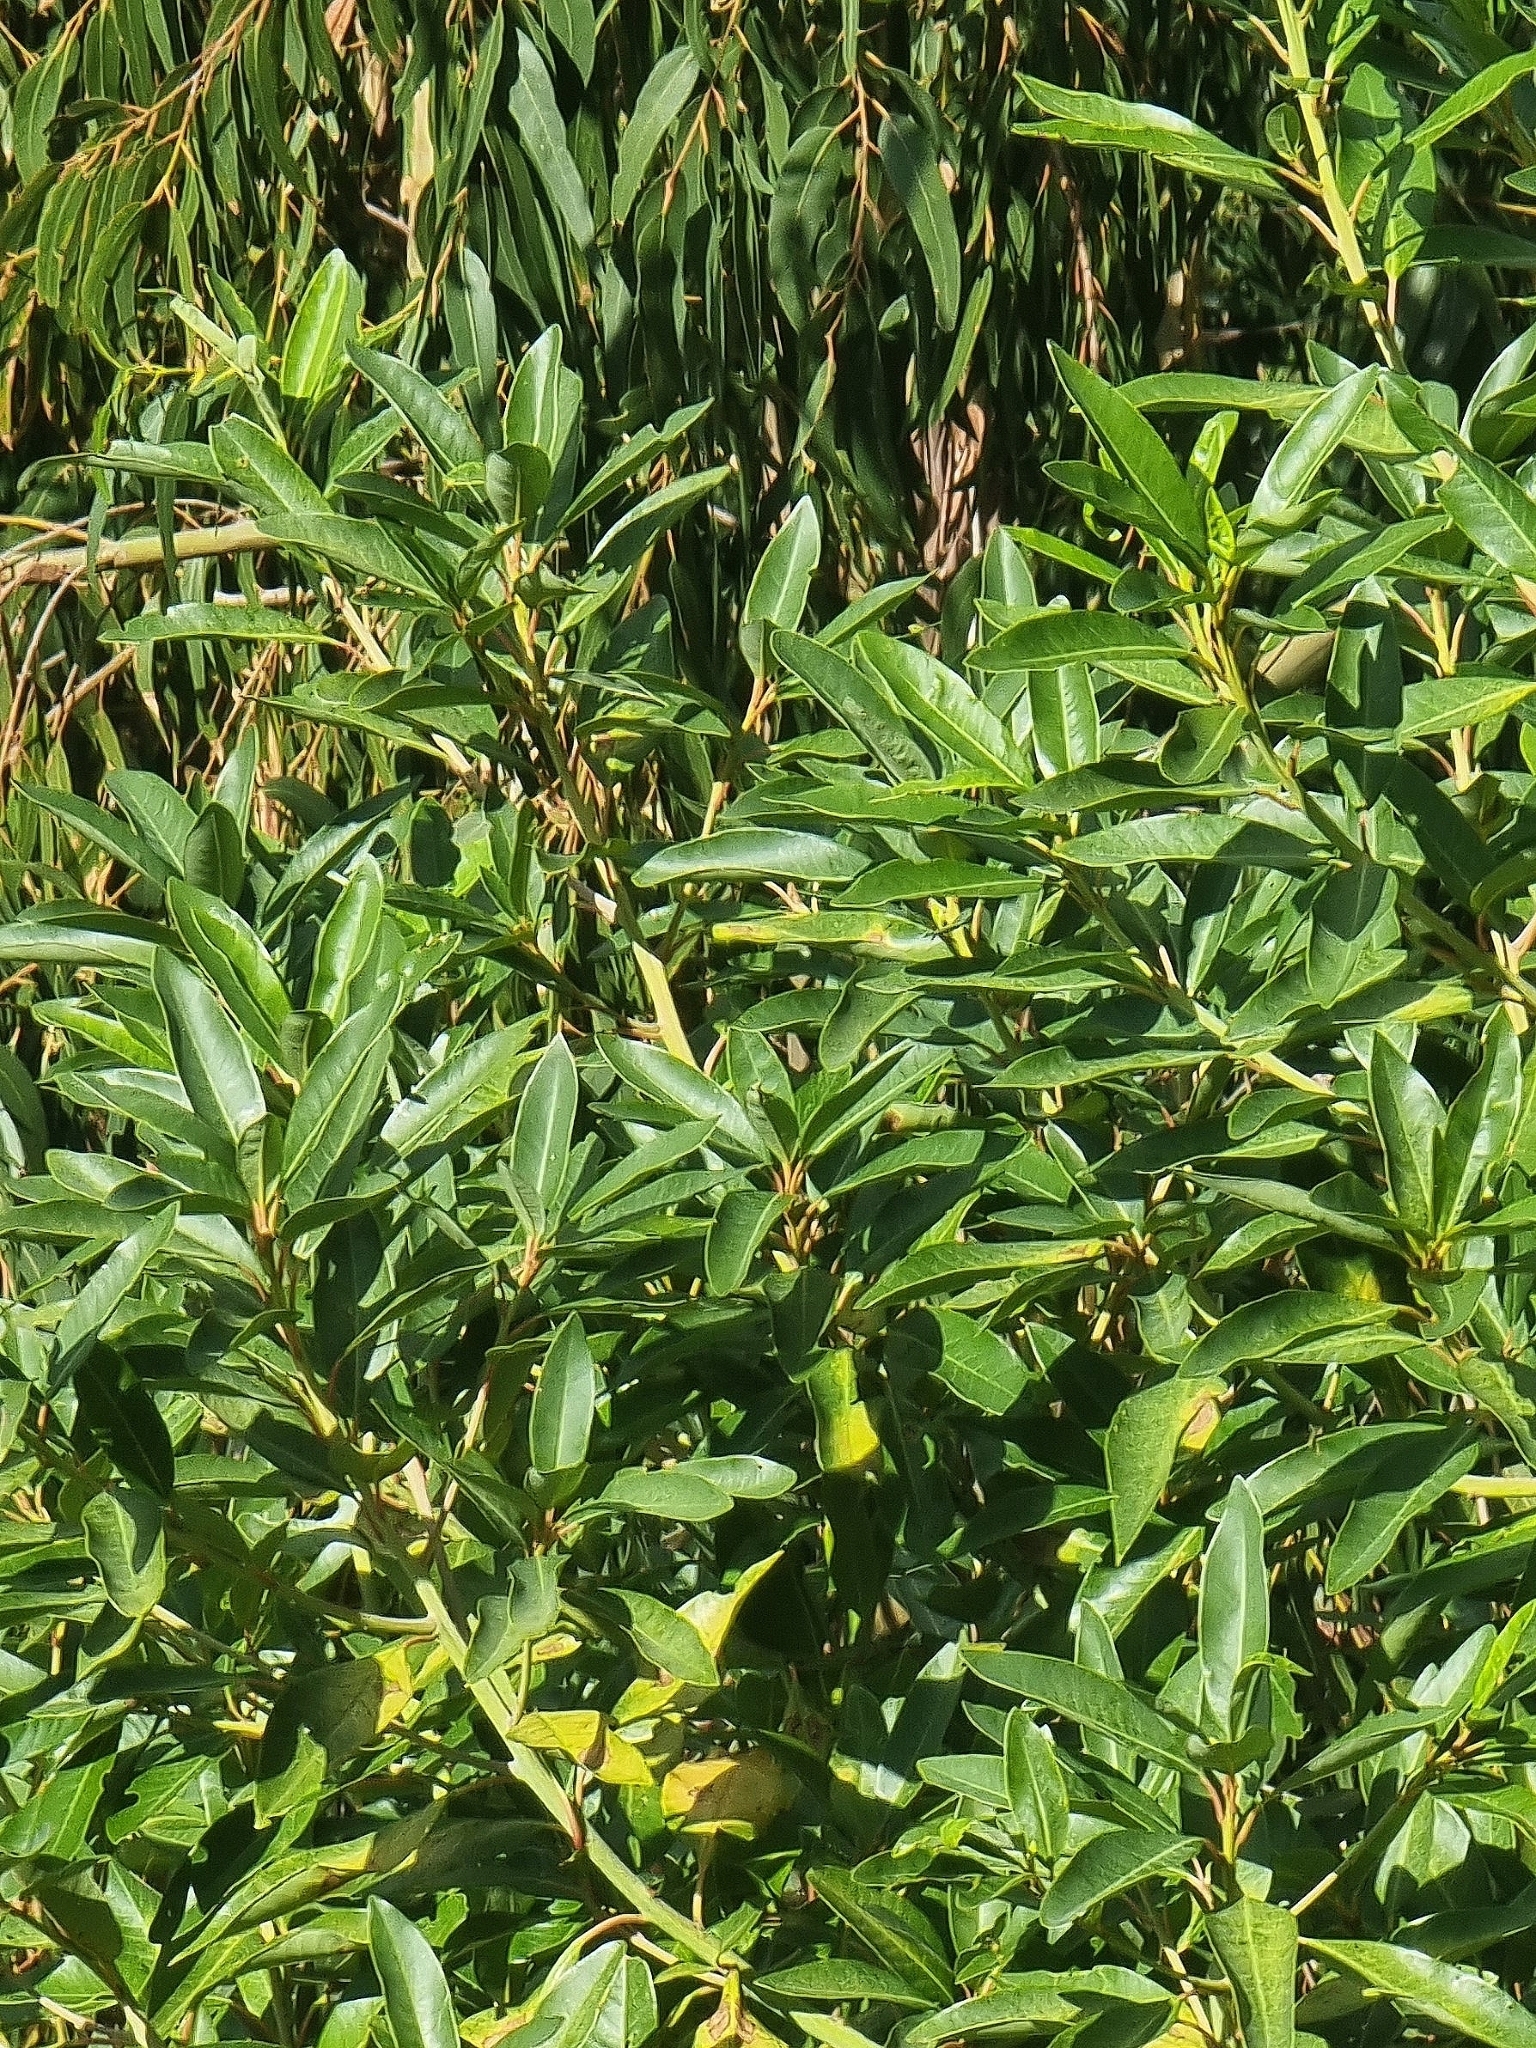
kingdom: Plantae
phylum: Tracheophyta
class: Magnoliopsida
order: Laurales
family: Lauraceae
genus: Persea
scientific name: Persea indica
